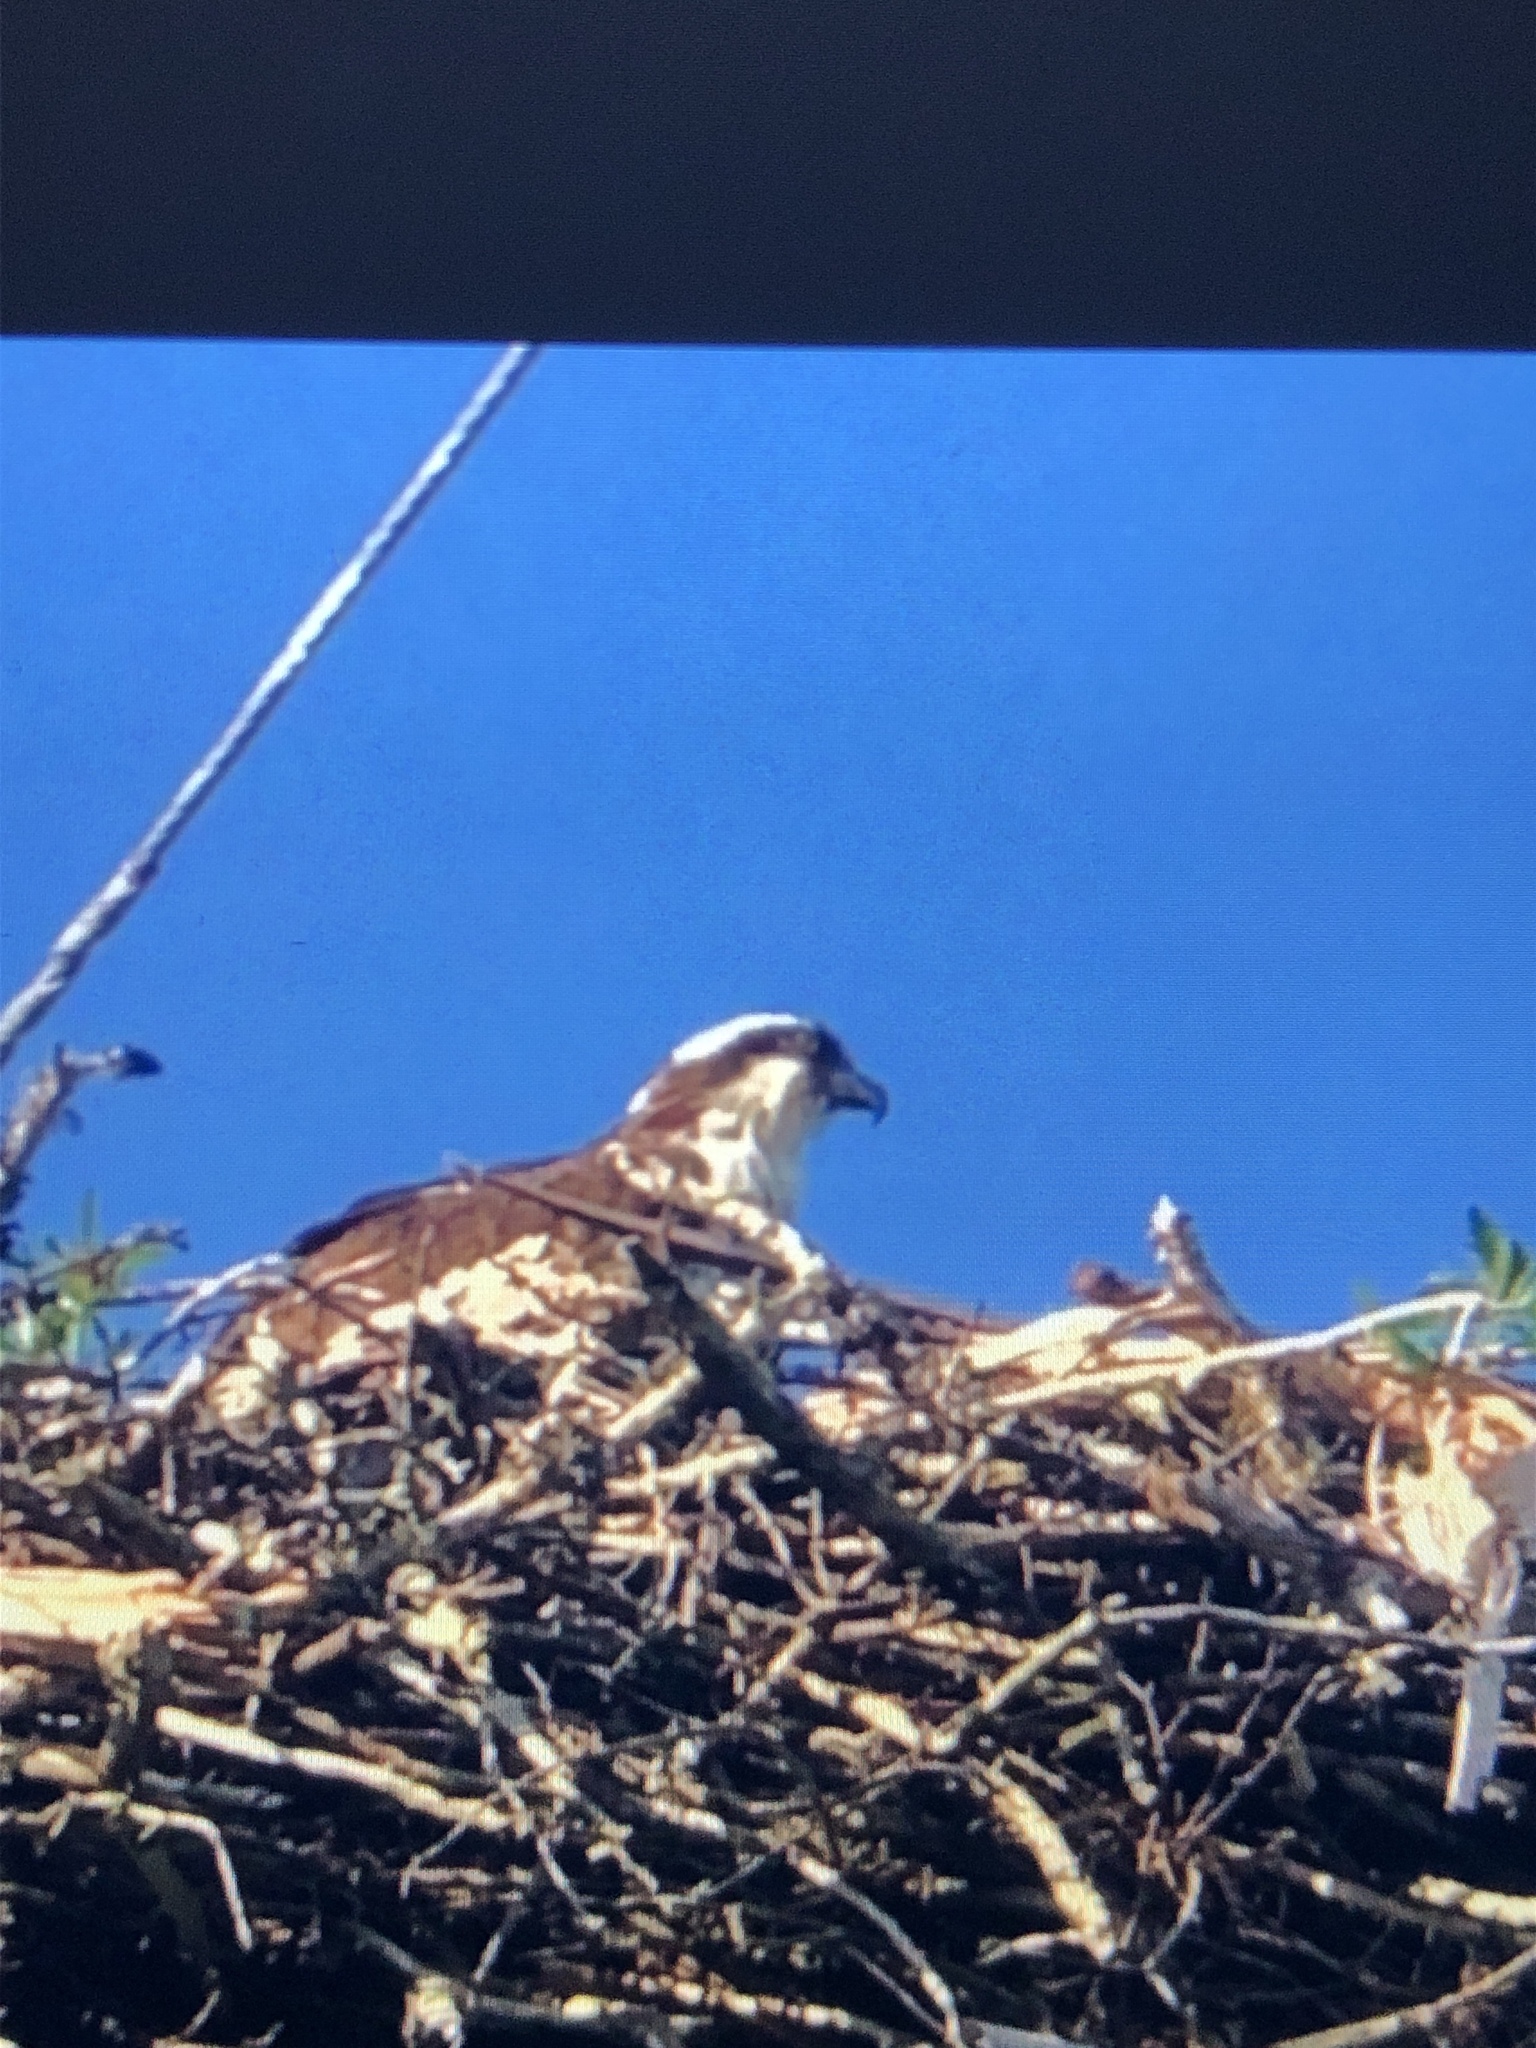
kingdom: Animalia
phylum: Chordata
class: Aves
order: Accipitriformes
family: Pandionidae
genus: Pandion
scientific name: Pandion haliaetus
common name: Osprey
